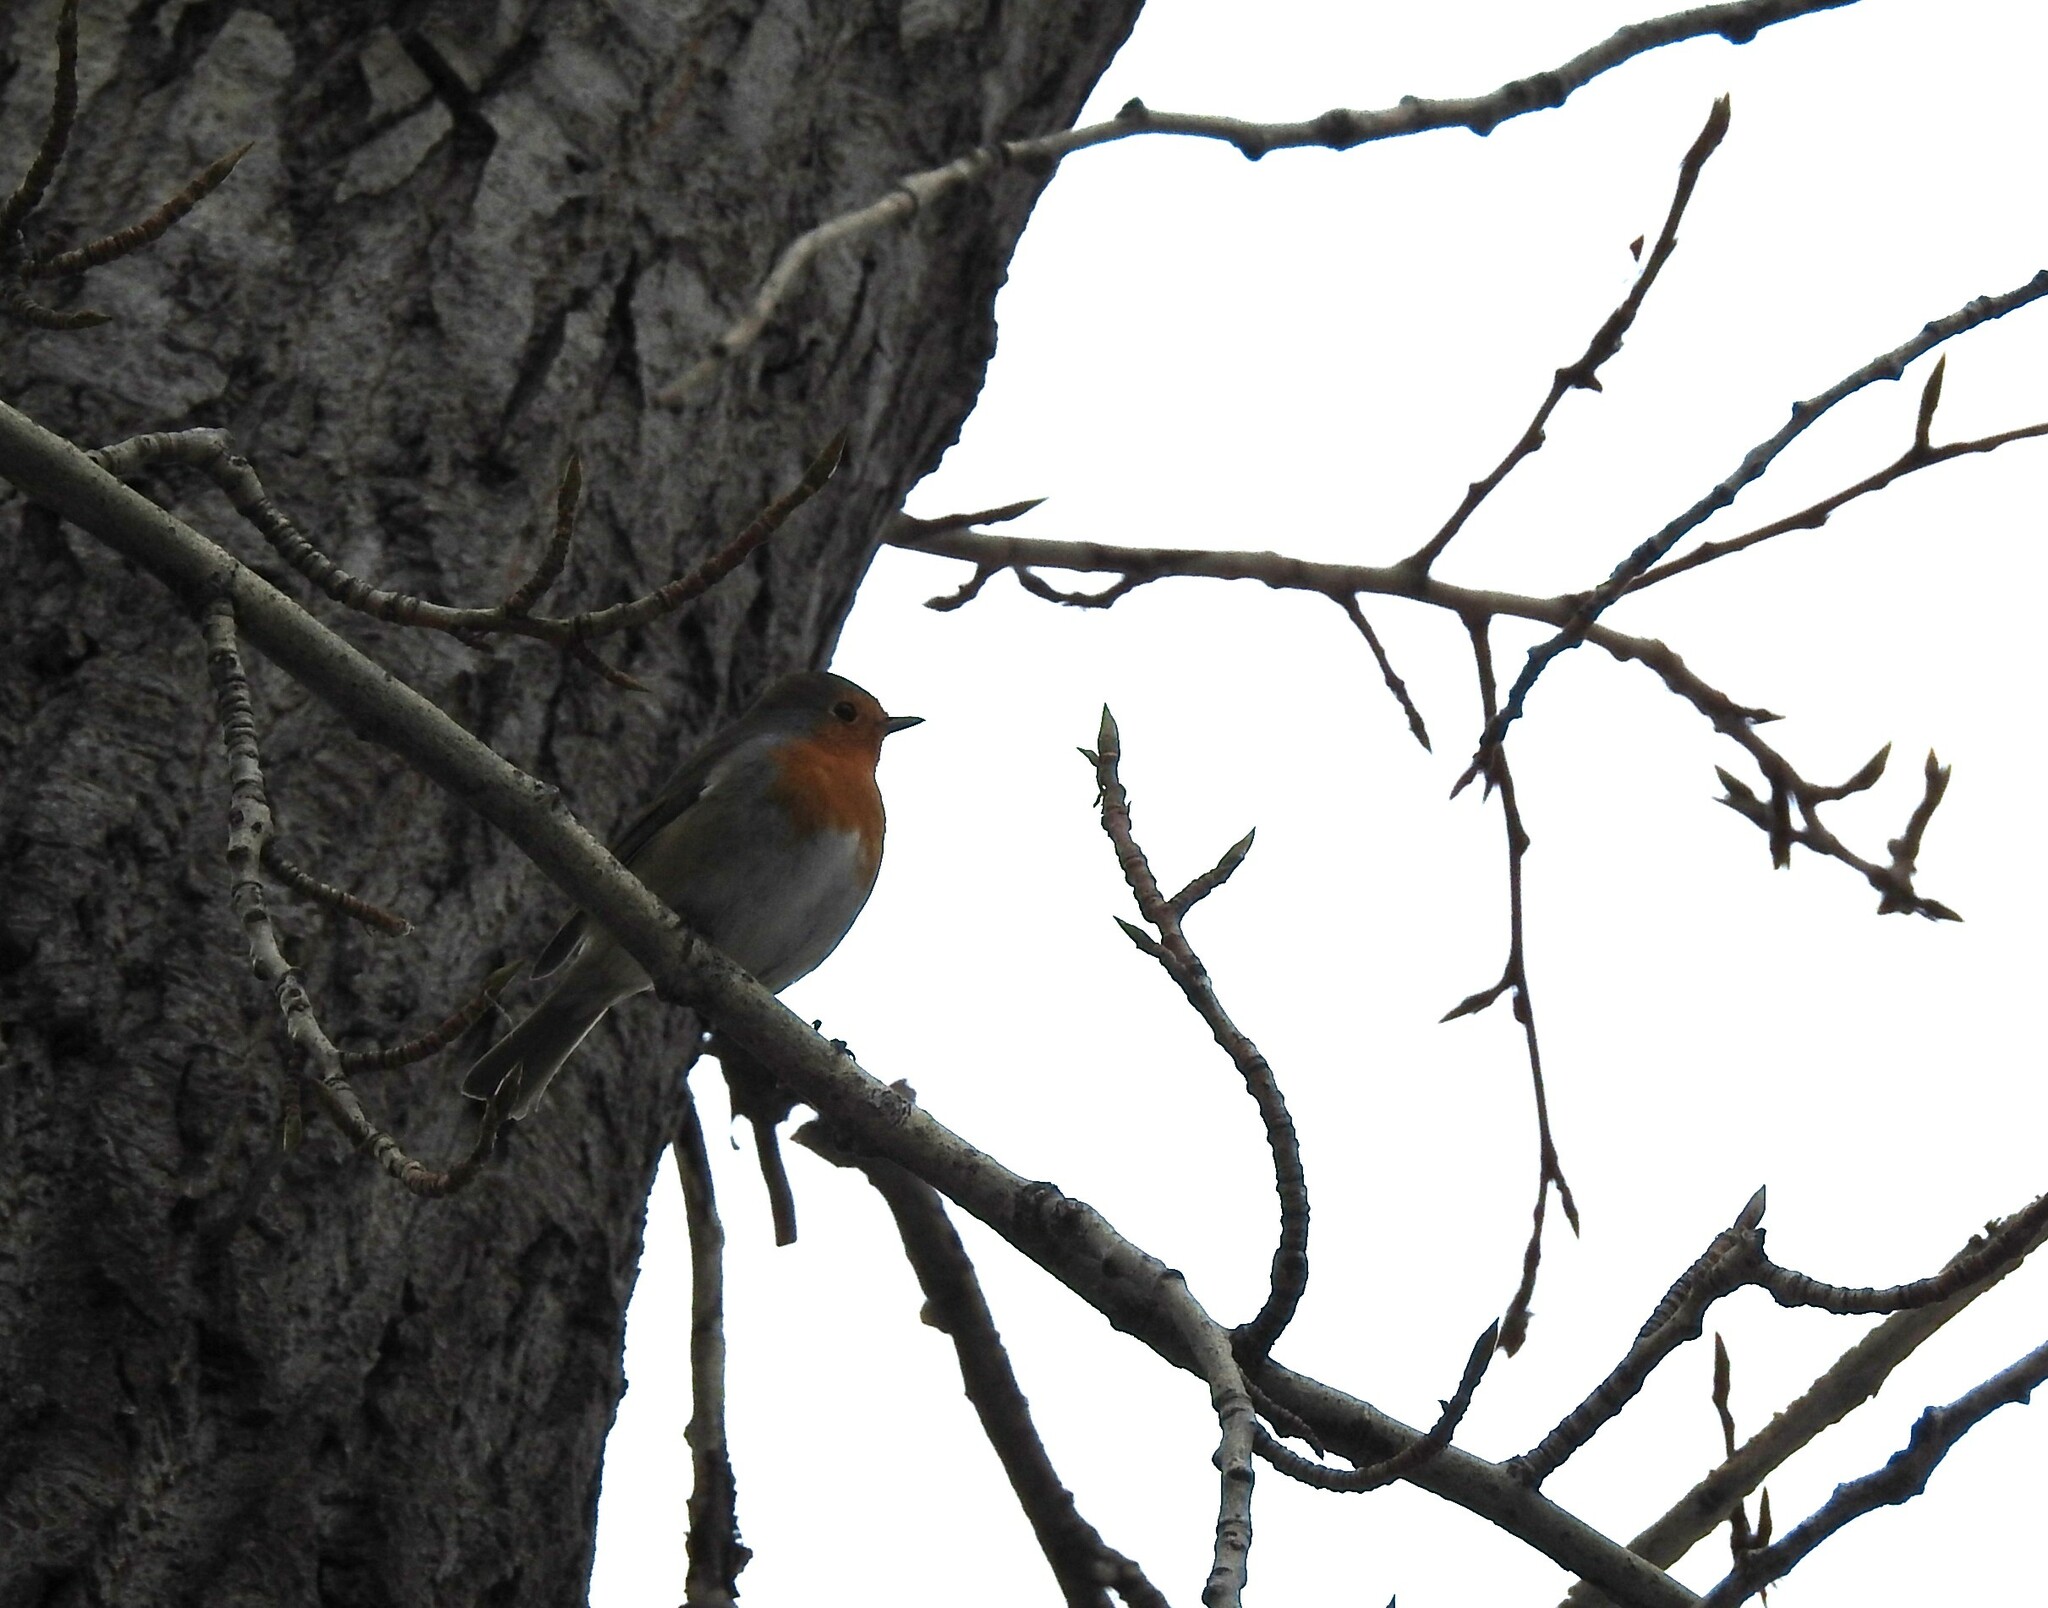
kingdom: Animalia
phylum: Chordata
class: Aves
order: Passeriformes
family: Muscicapidae
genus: Erithacus
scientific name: Erithacus rubecula
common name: European robin
